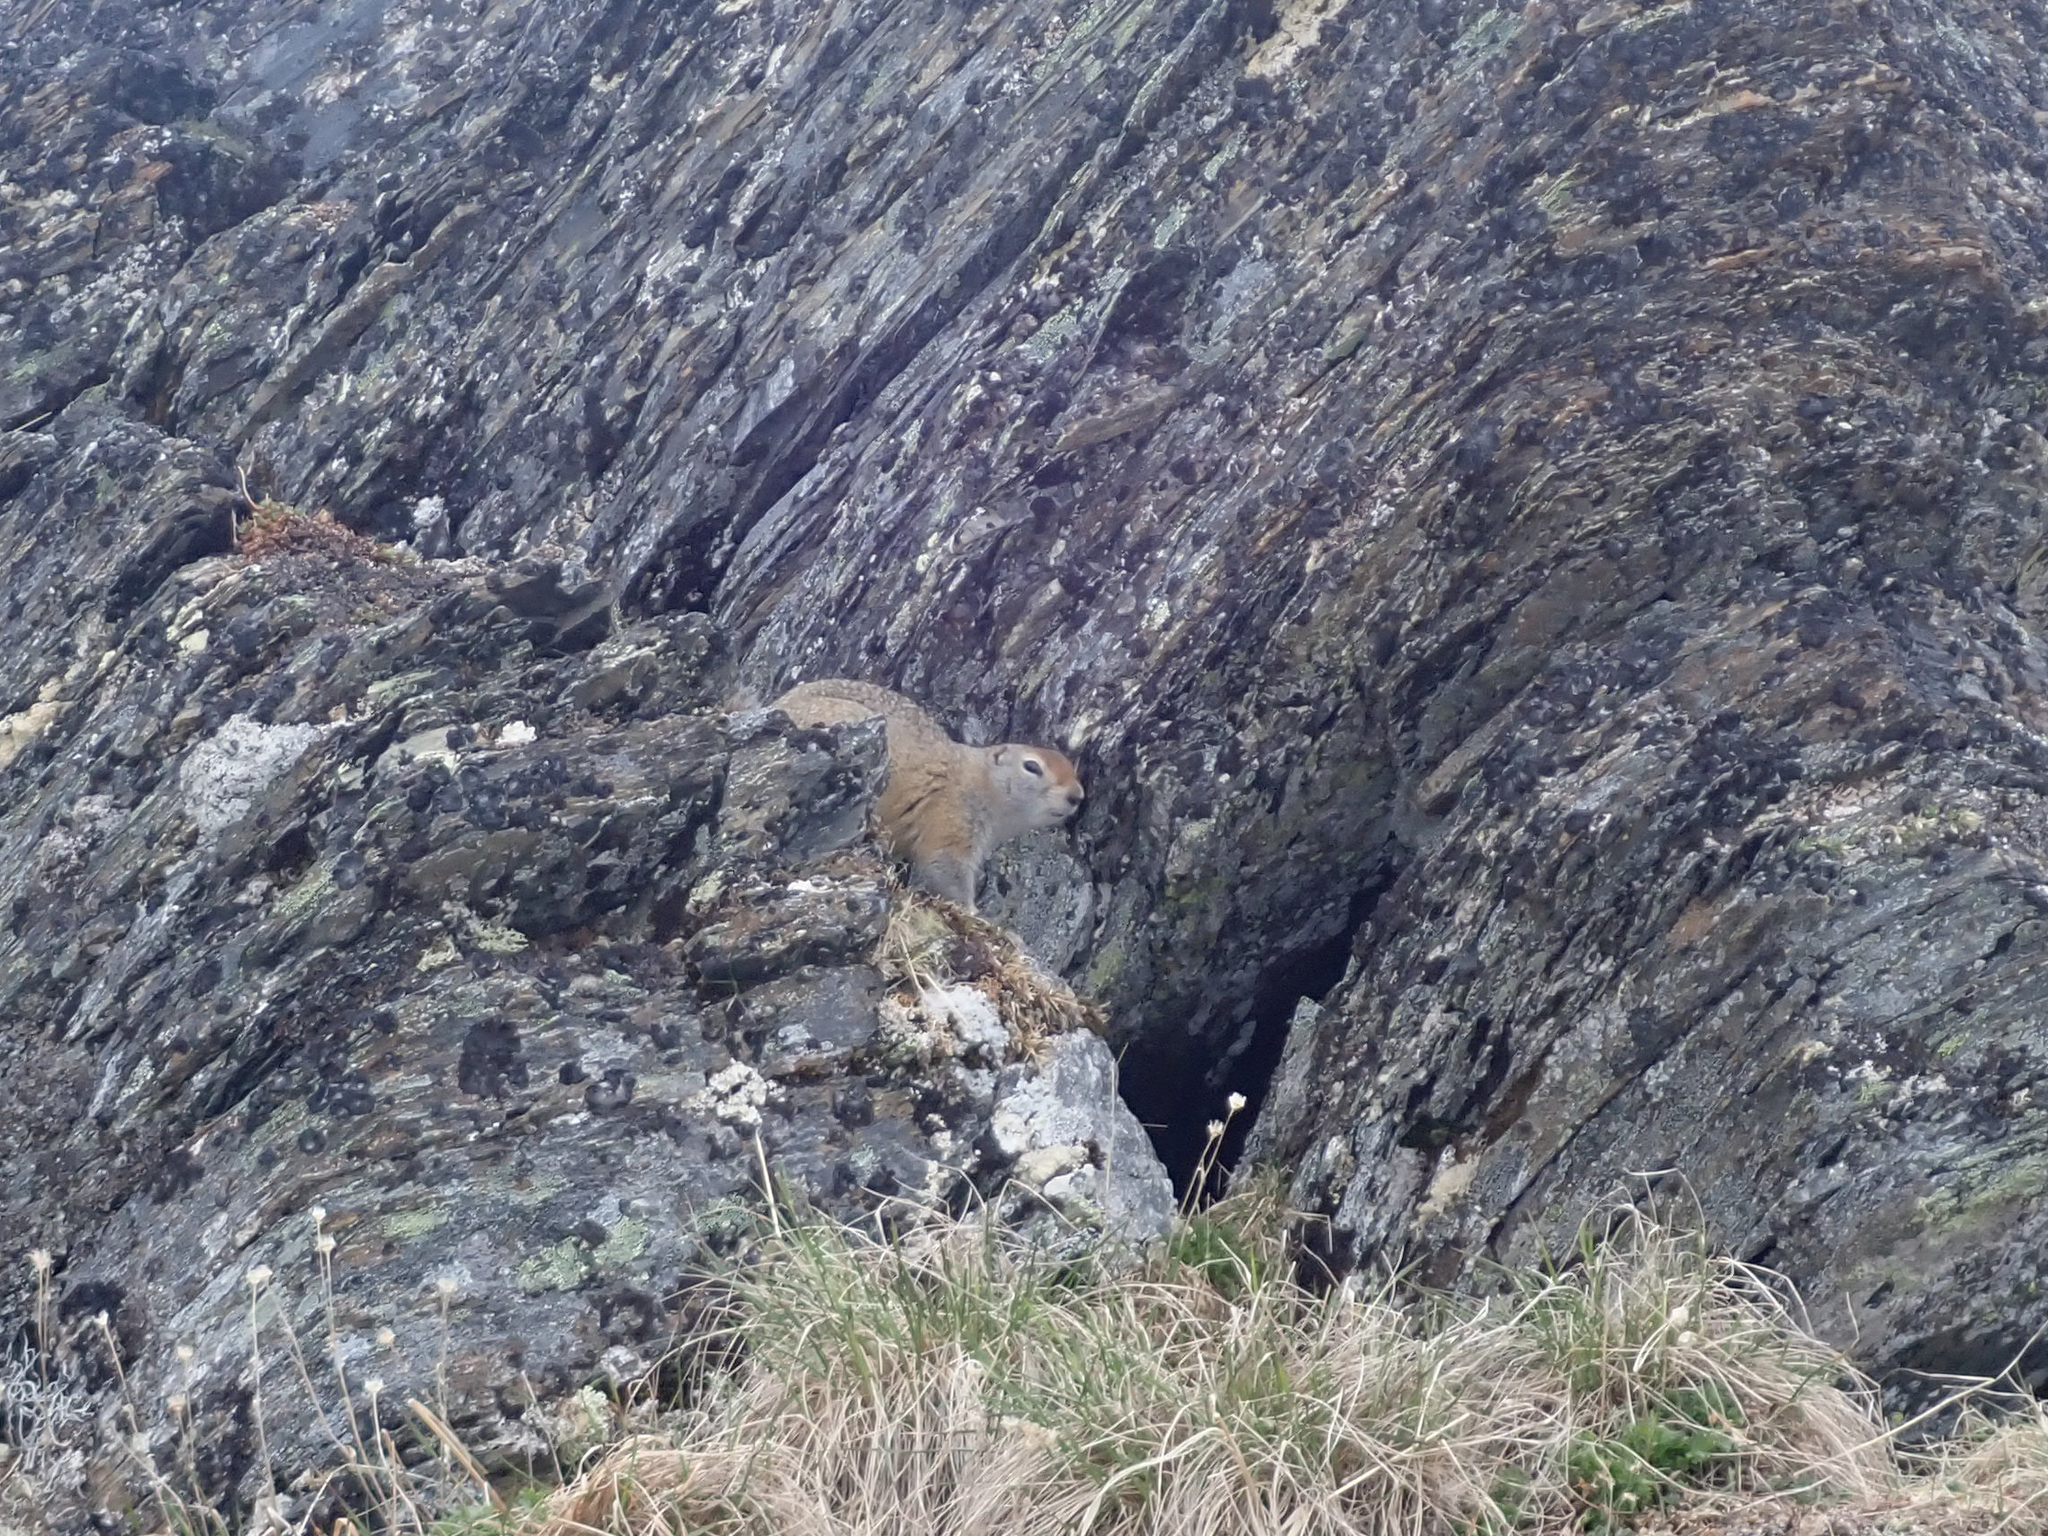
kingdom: Animalia
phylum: Chordata
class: Mammalia
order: Rodentia
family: Sciuridae
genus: Urocitellus
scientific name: Urocitellus parryii
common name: Arctic ground squirrel
